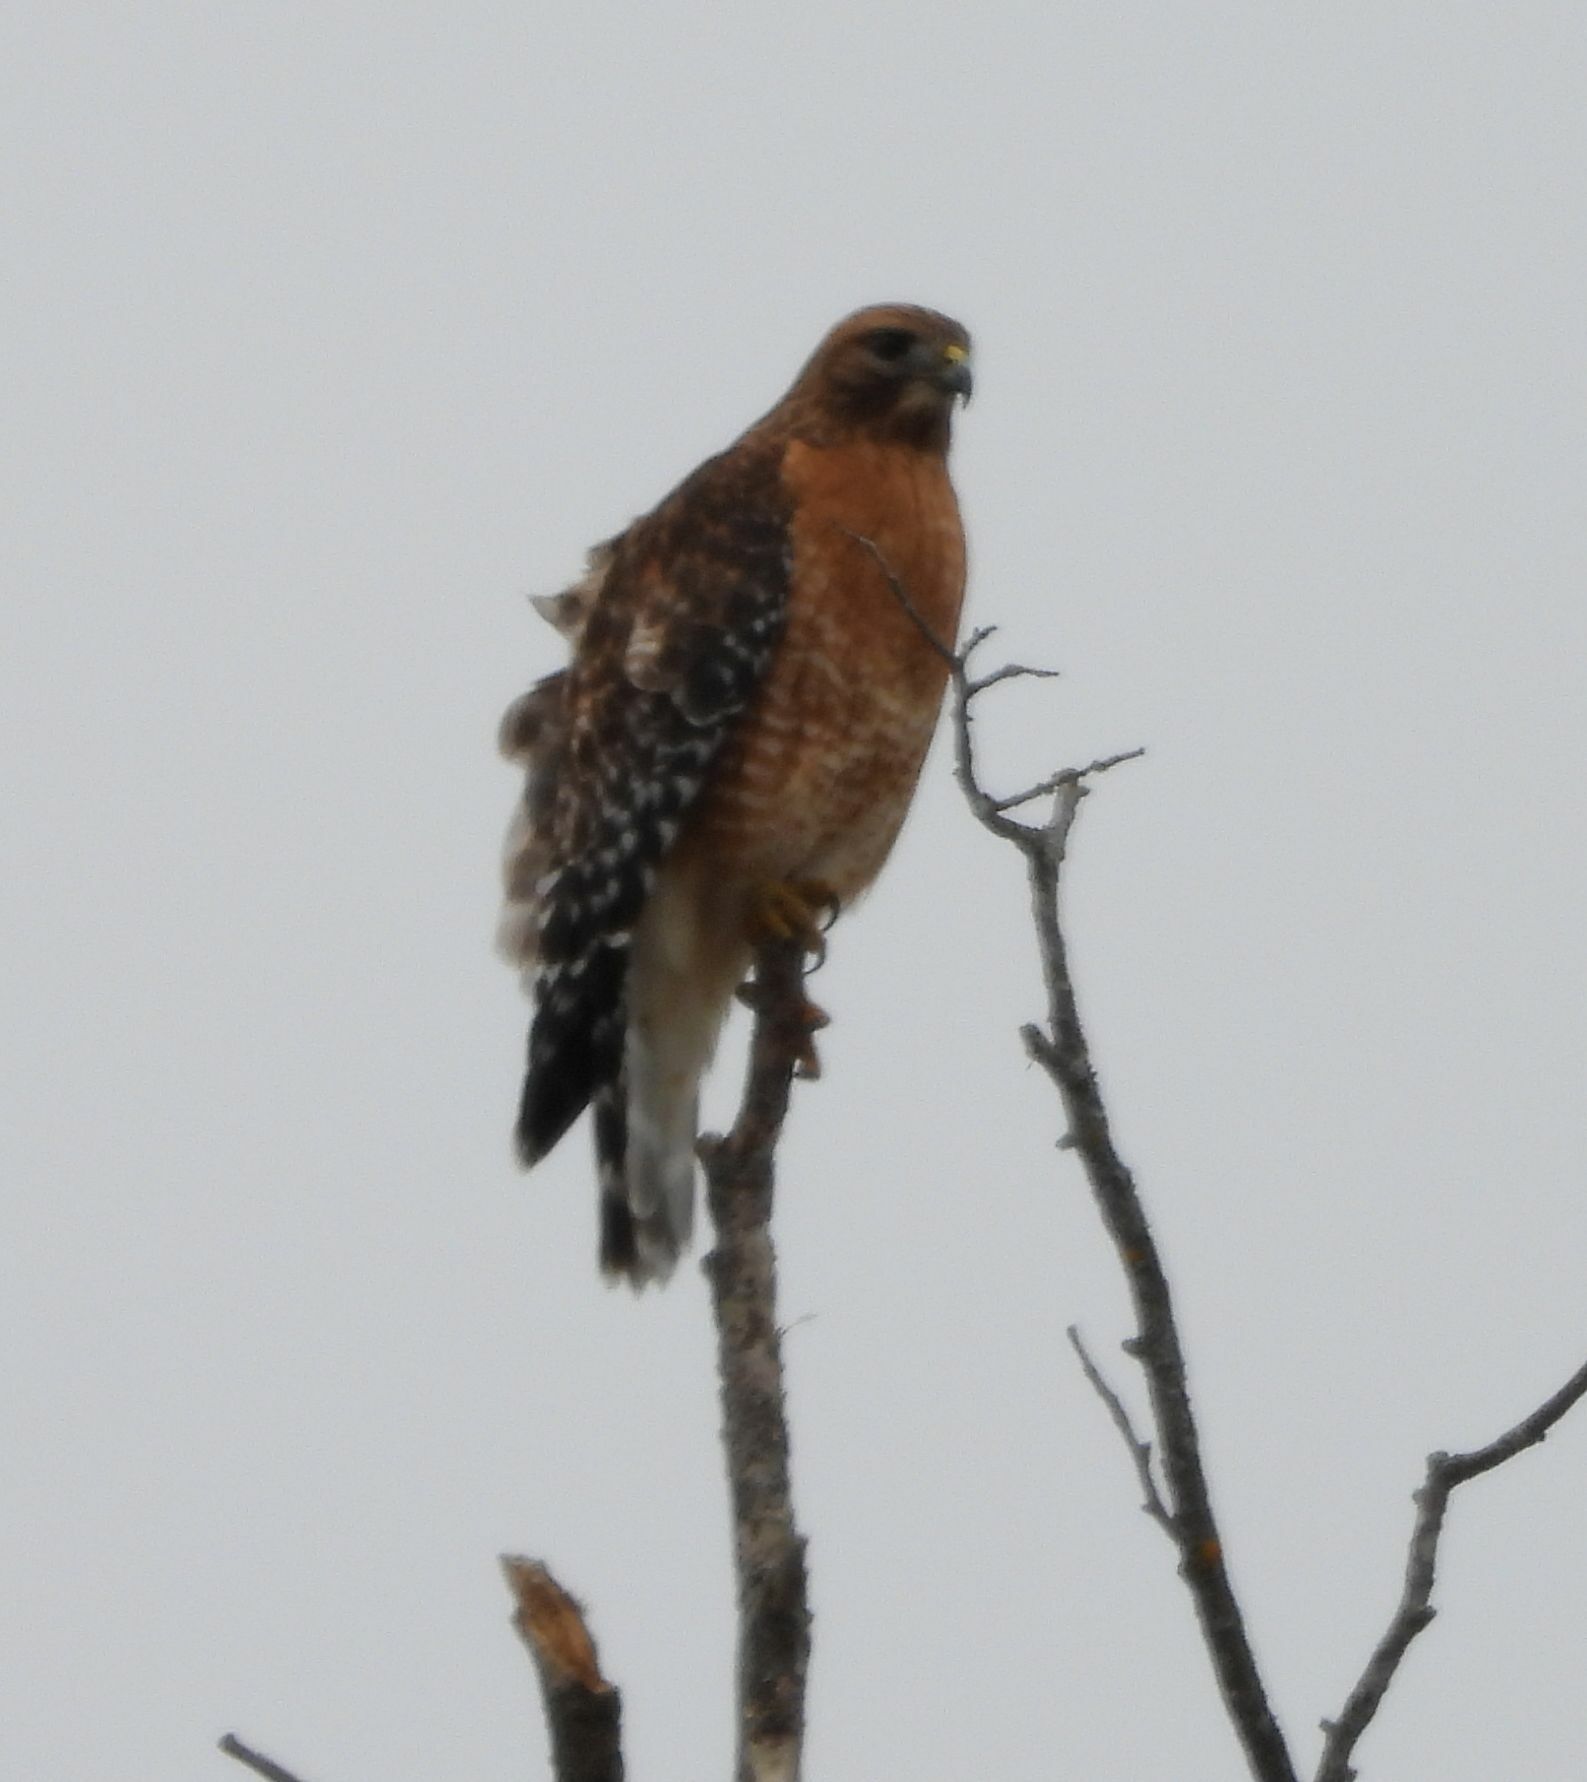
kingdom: Animalia
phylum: Chordata
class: Aves
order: Accipitriformes
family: Accipitridae
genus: Buteo
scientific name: Buteo lineatus
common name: Red-shouldered hawk
